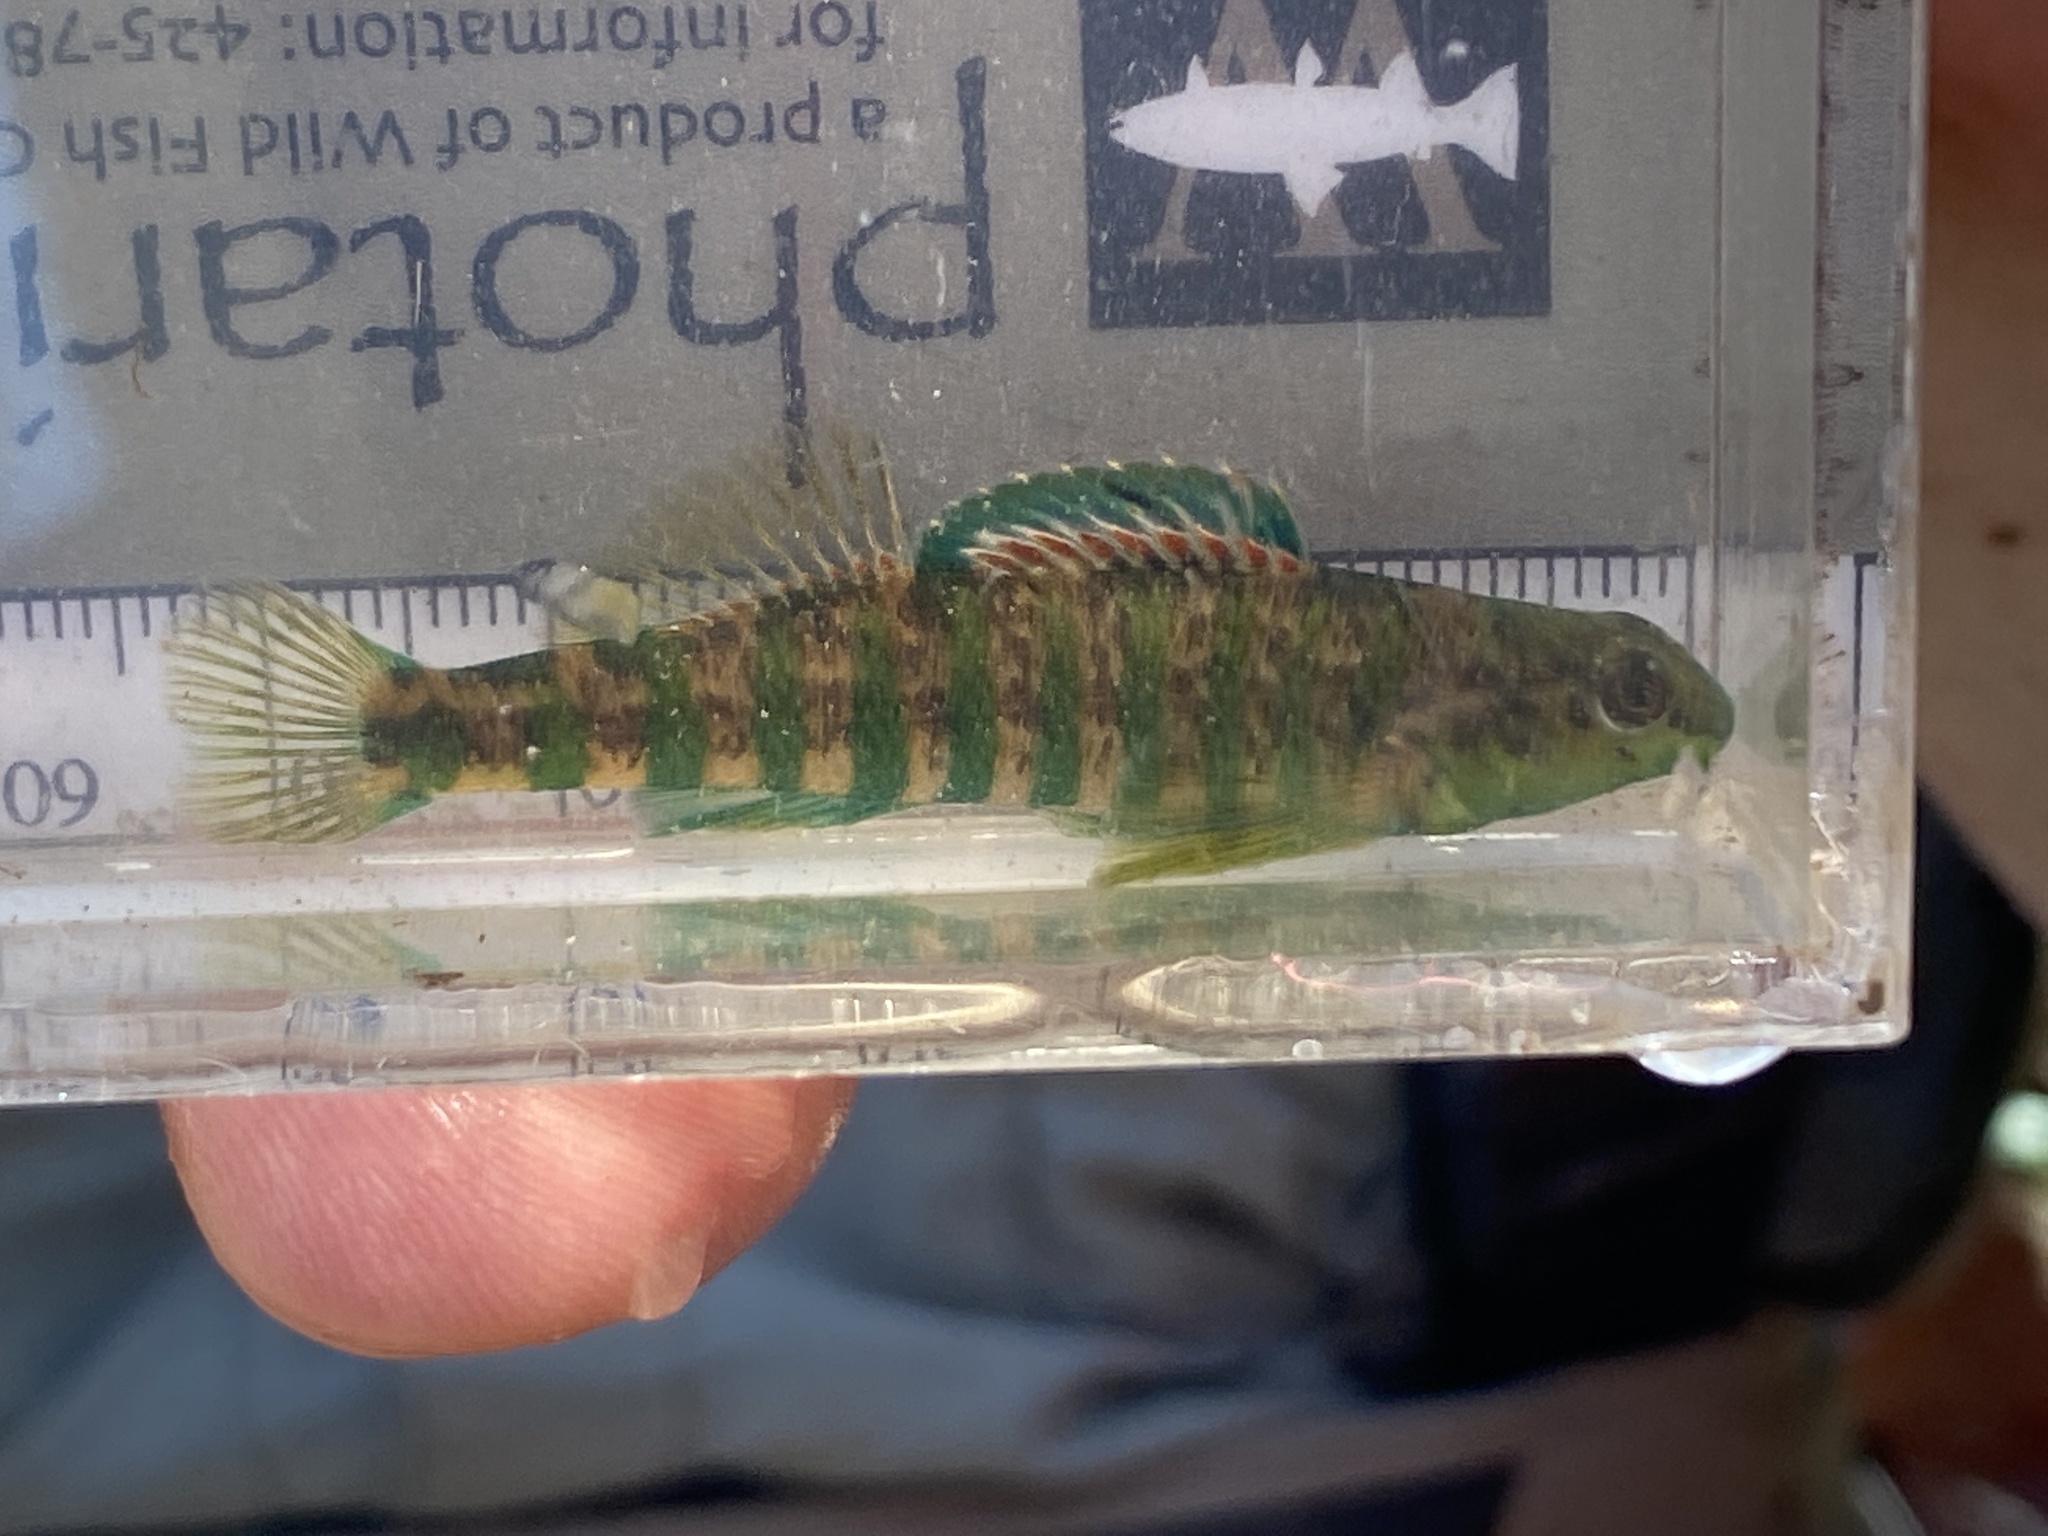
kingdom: Animalia
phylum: Chordata
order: Perciformes
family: Percidae
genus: Etheostoma
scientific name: Etheostoma zonale
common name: Banded darter
